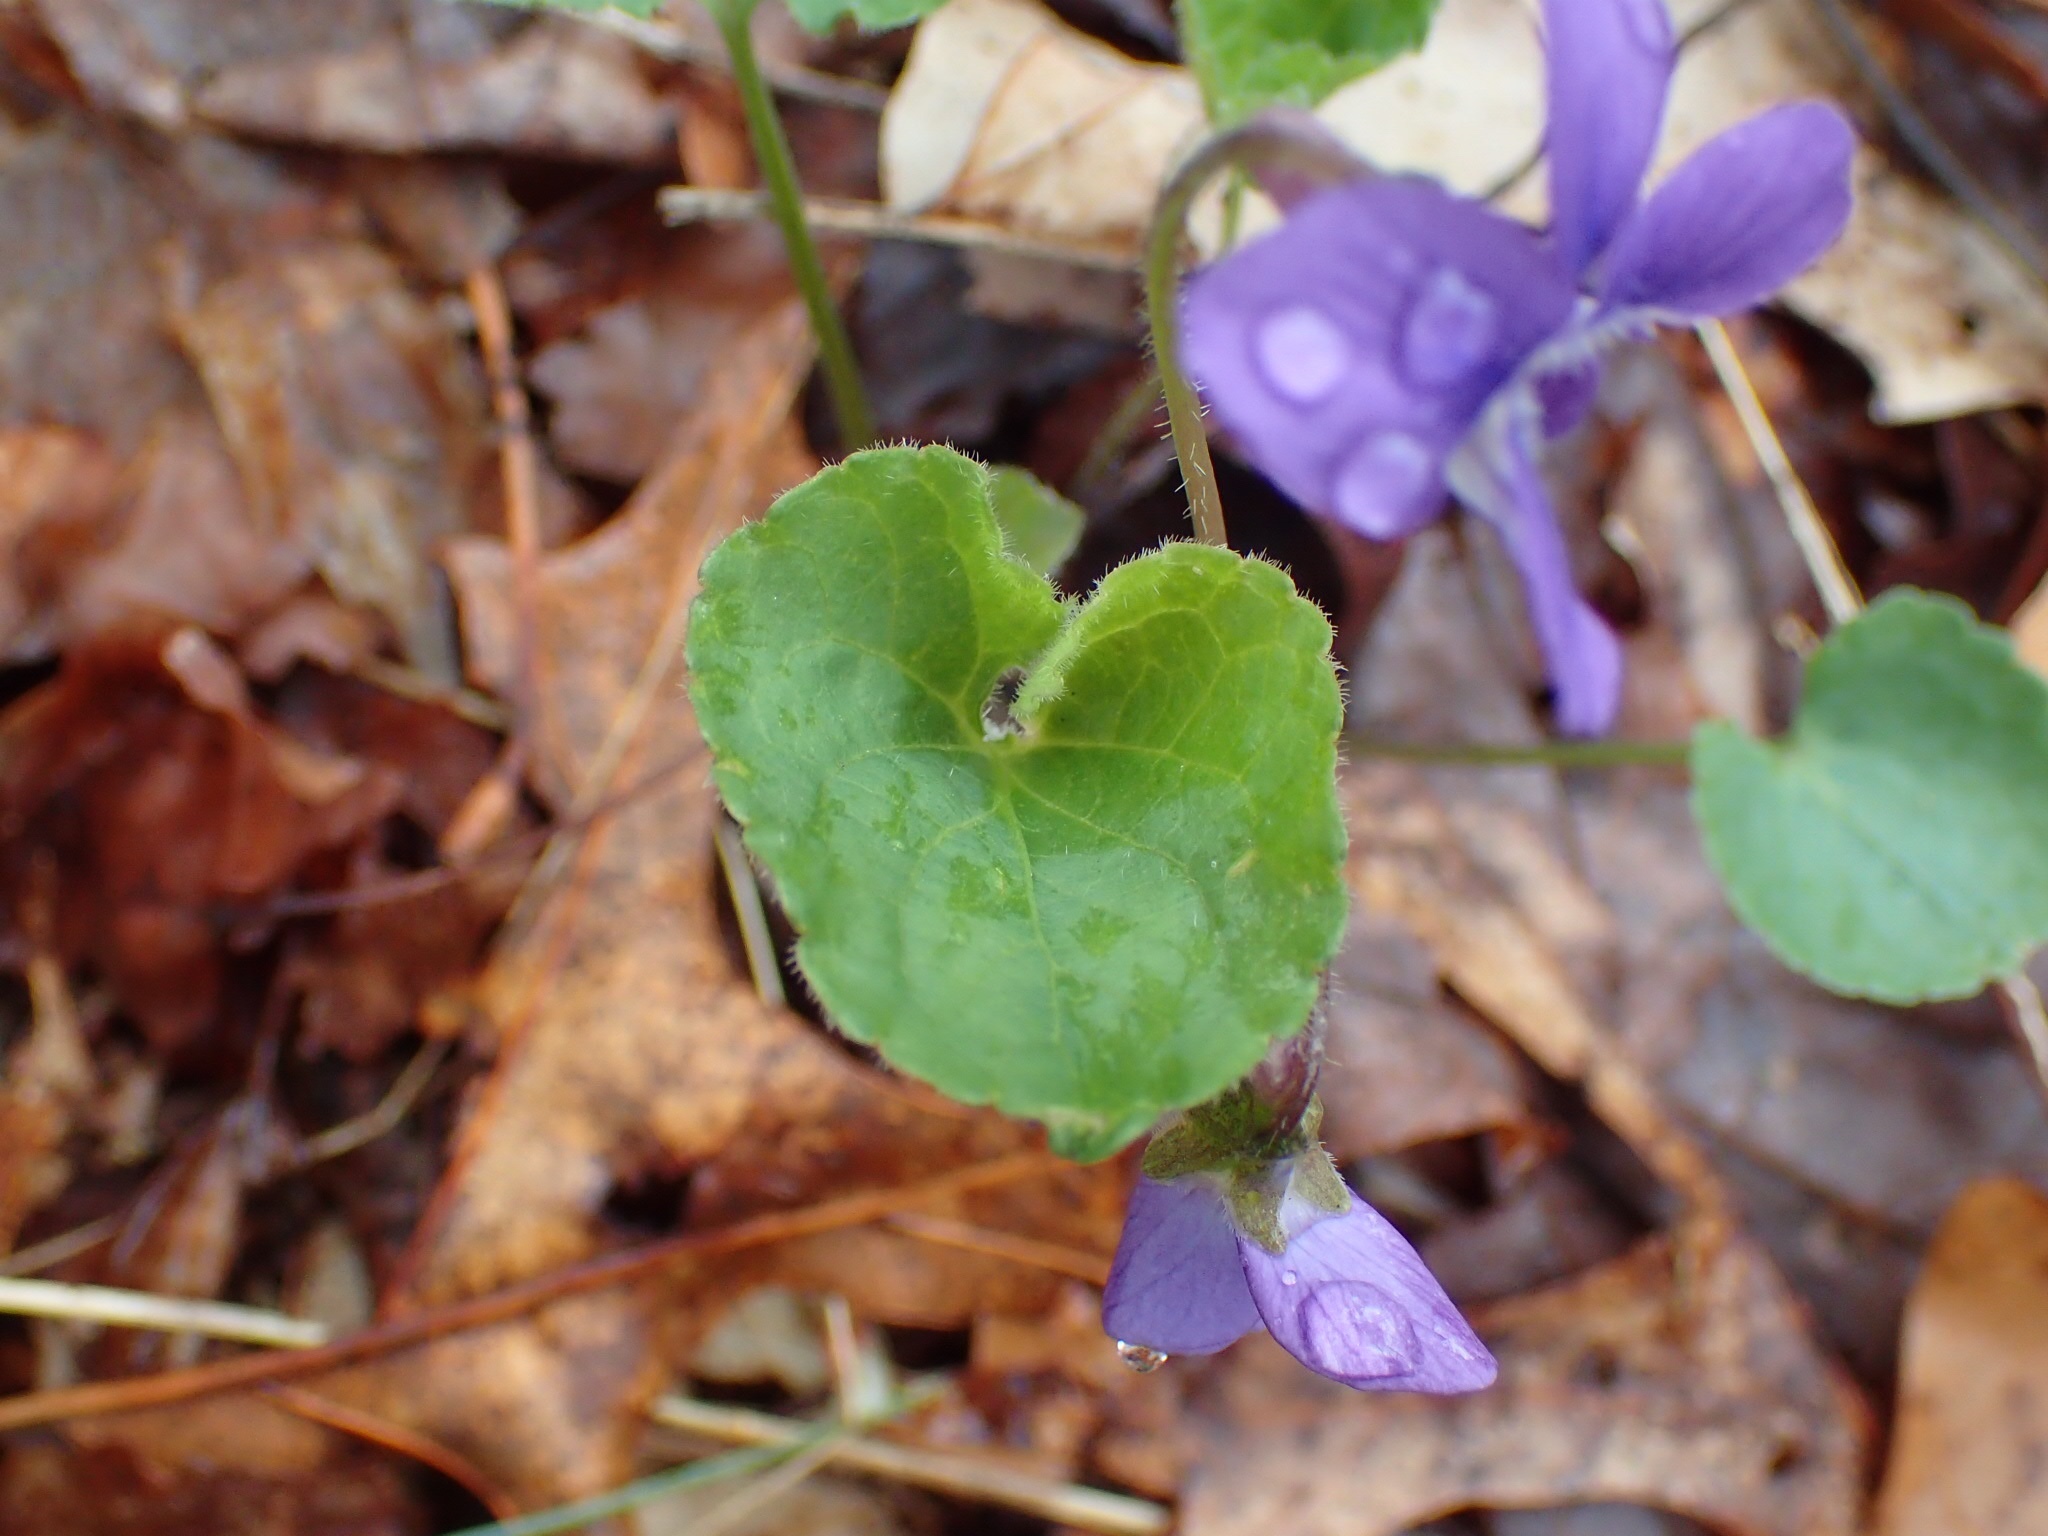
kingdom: Plantae
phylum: Tracheophyta
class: Magnoliopsida
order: Malpighiales
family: Violaceae
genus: Viola
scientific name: Viola sororia
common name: Dooryard violet
